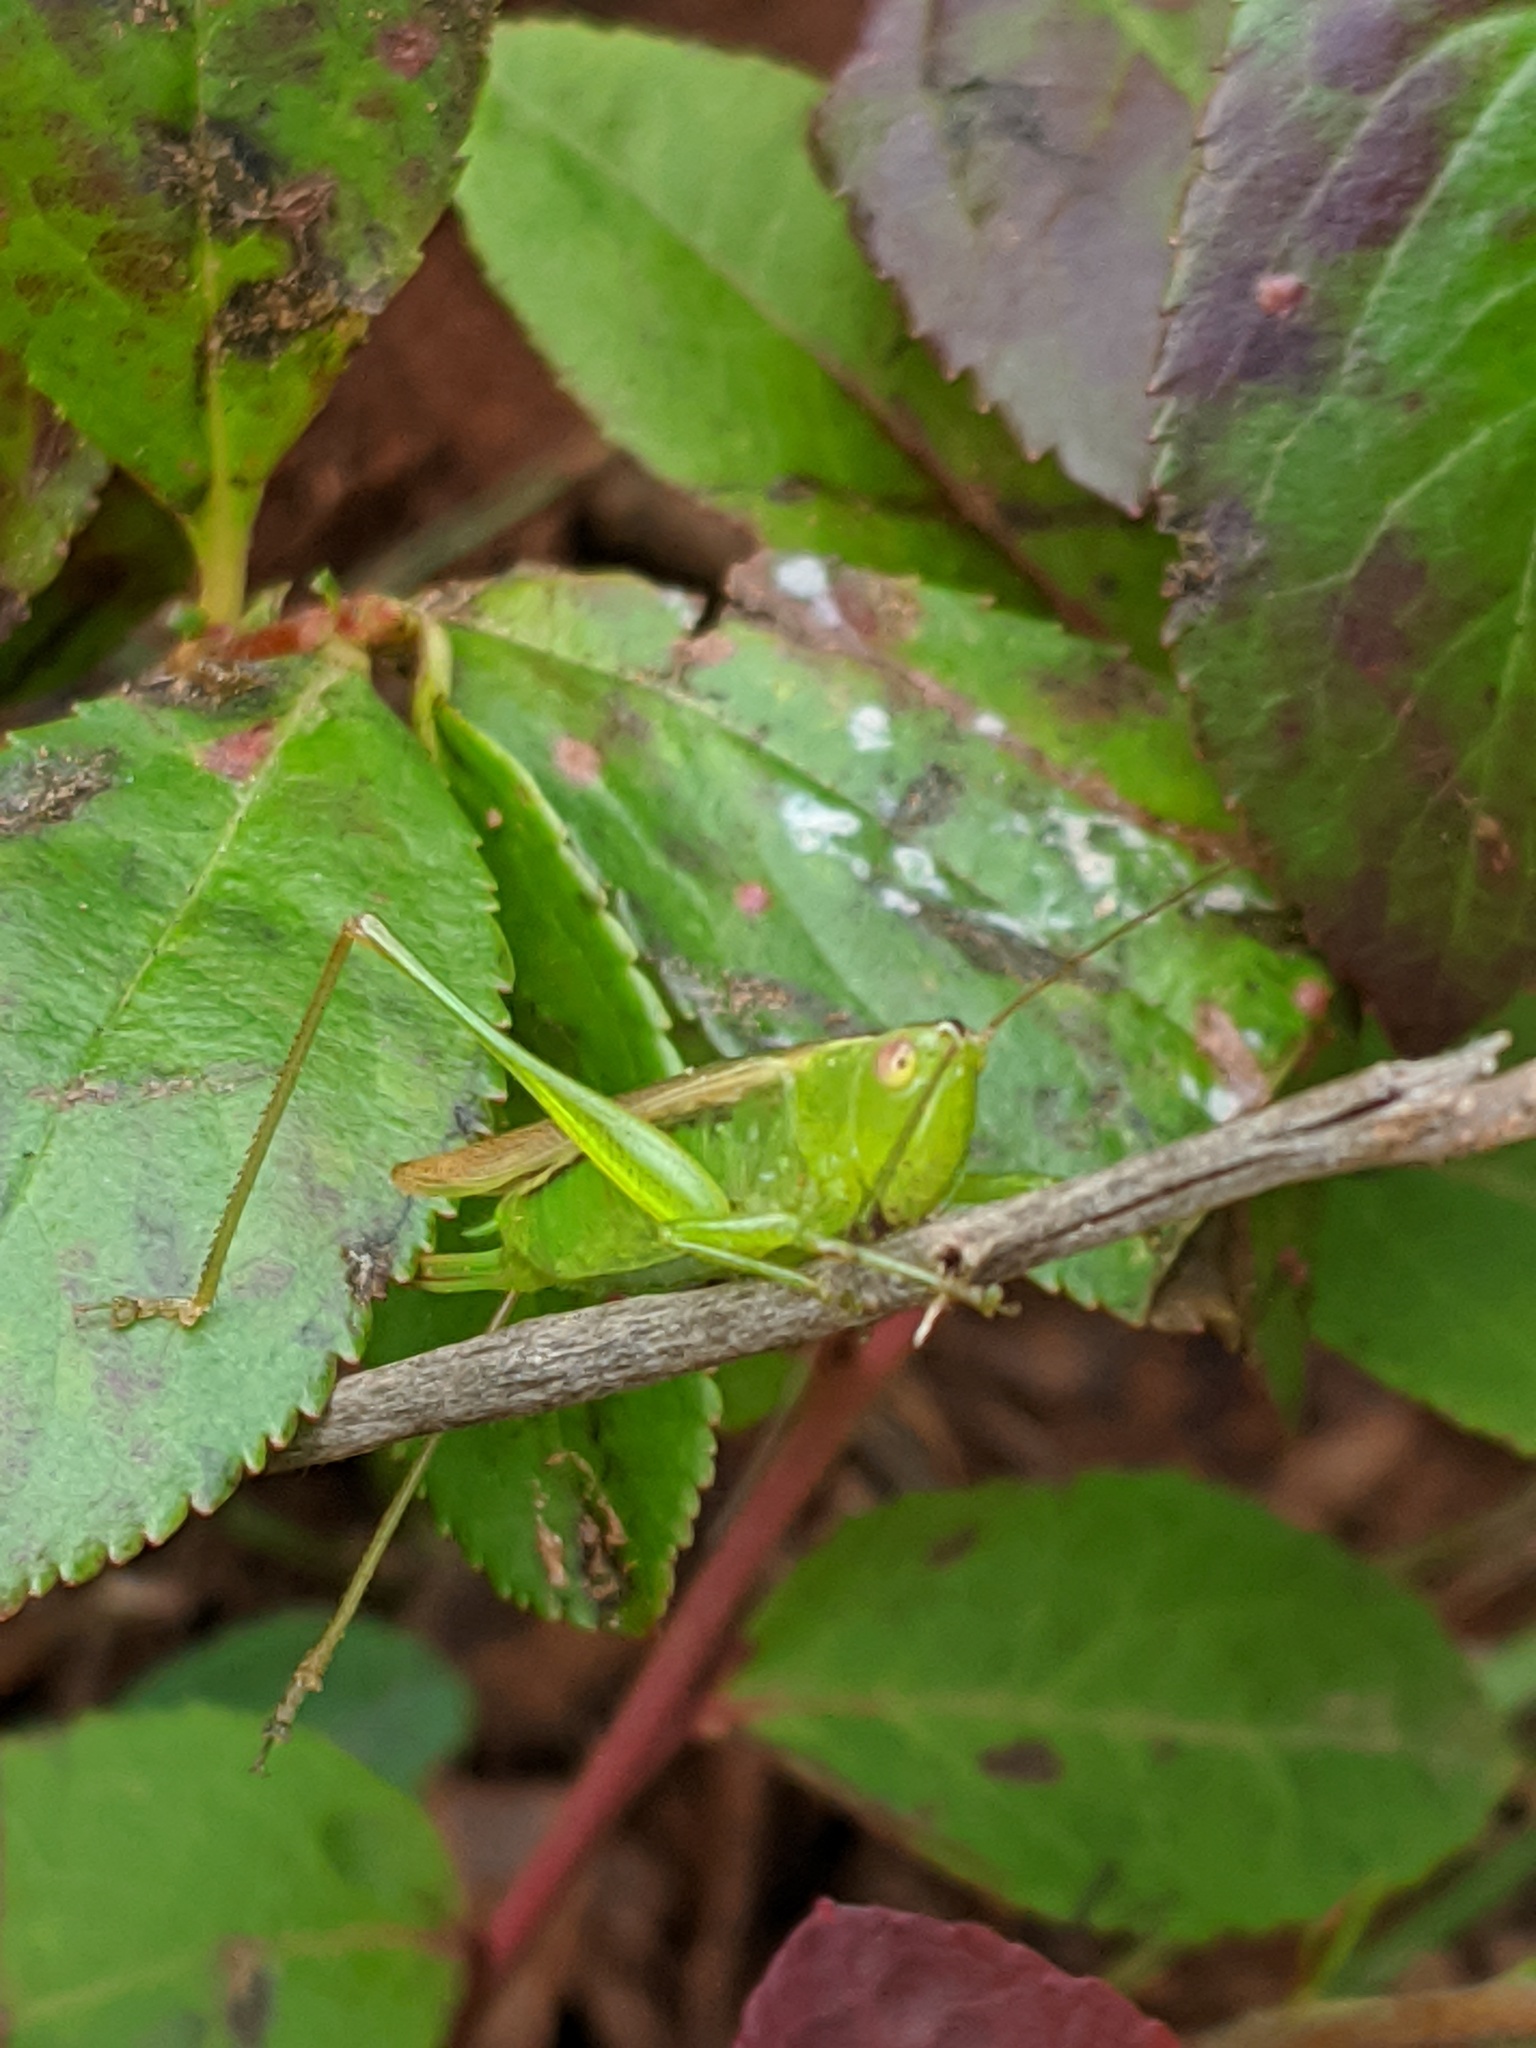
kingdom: Animalia
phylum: Arthropoda
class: Insecta
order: Orthoptera
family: Tettigoniidae
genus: Conocephalus
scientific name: Conocephalus fasciatus
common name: Slender meadow katydid
